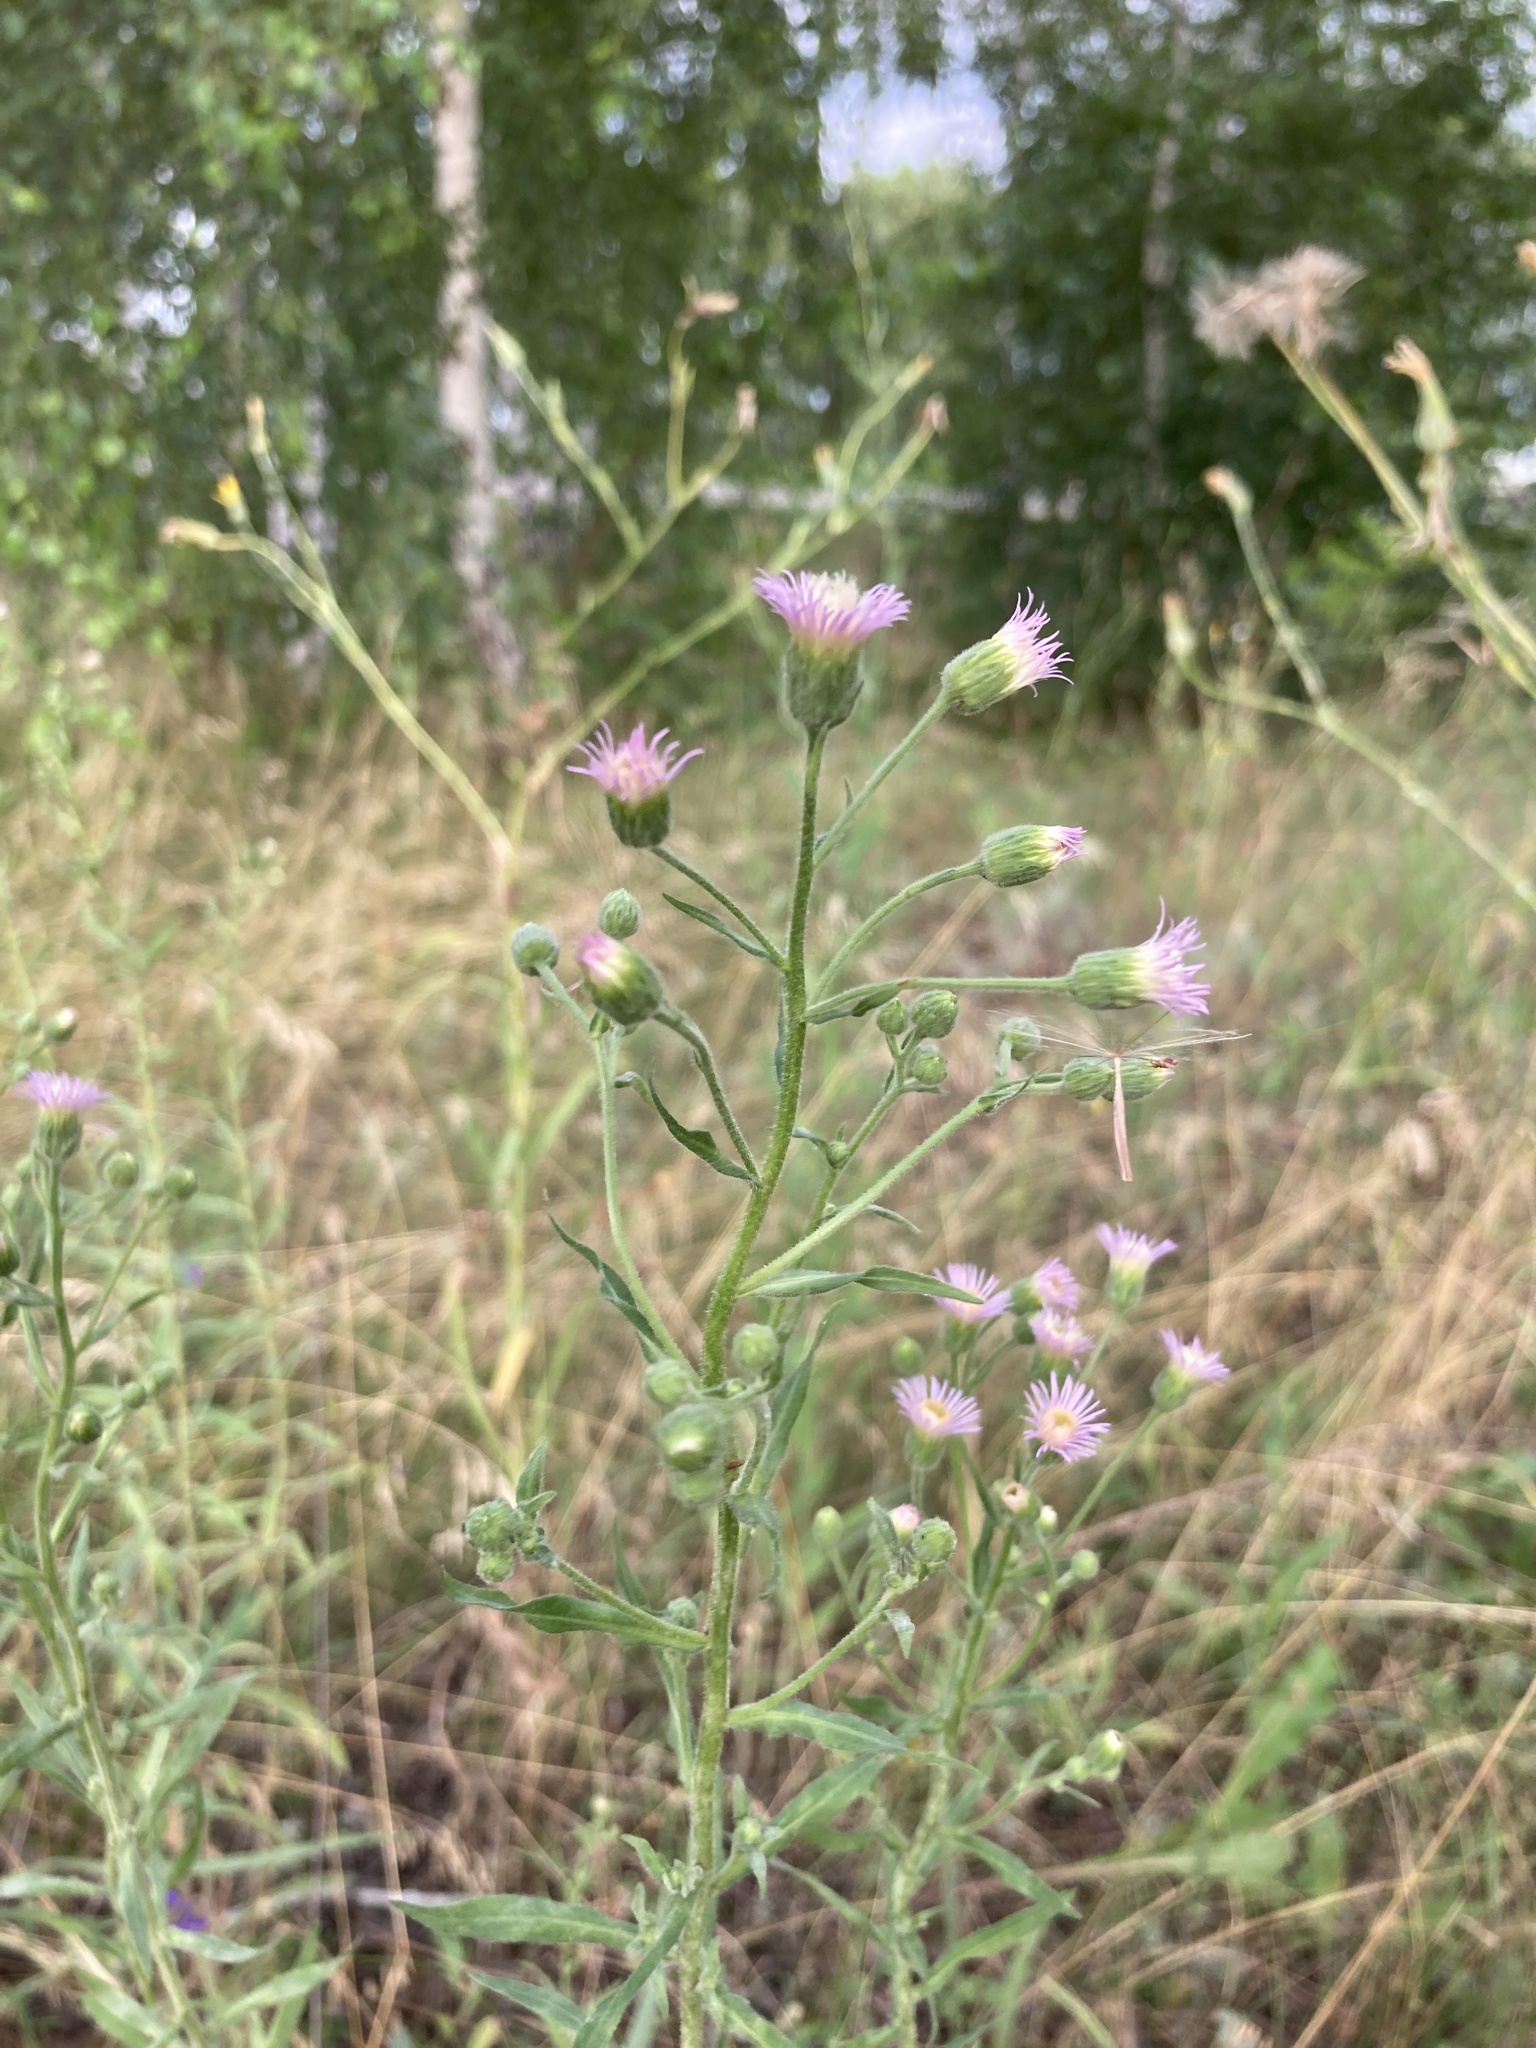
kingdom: Plantae
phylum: Tracheophyta
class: Magnoliopsida
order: Asterales
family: Asteraceae
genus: Erigeron
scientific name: Erigeron acris
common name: Blue fleabane
